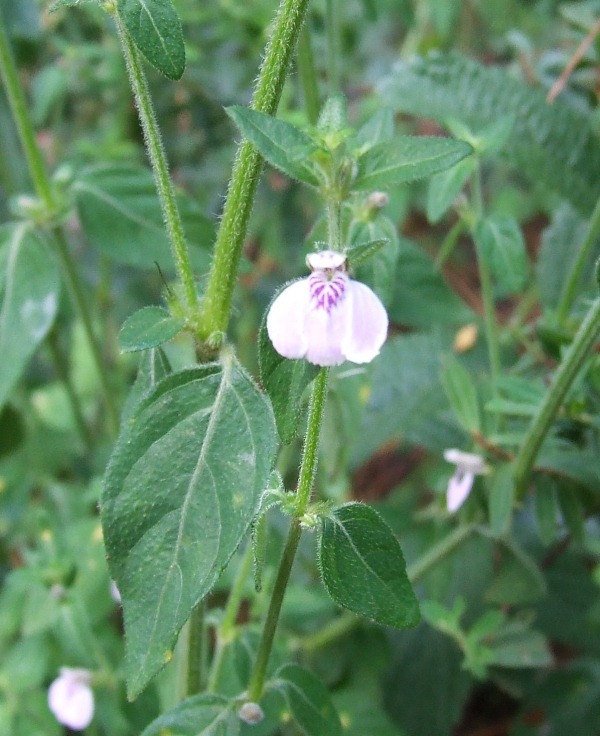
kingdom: Plantae
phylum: Tracheophyta
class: Magnoliopsida
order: Lamiales
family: Acanthaceae
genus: Justicia
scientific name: Justicia protracta
